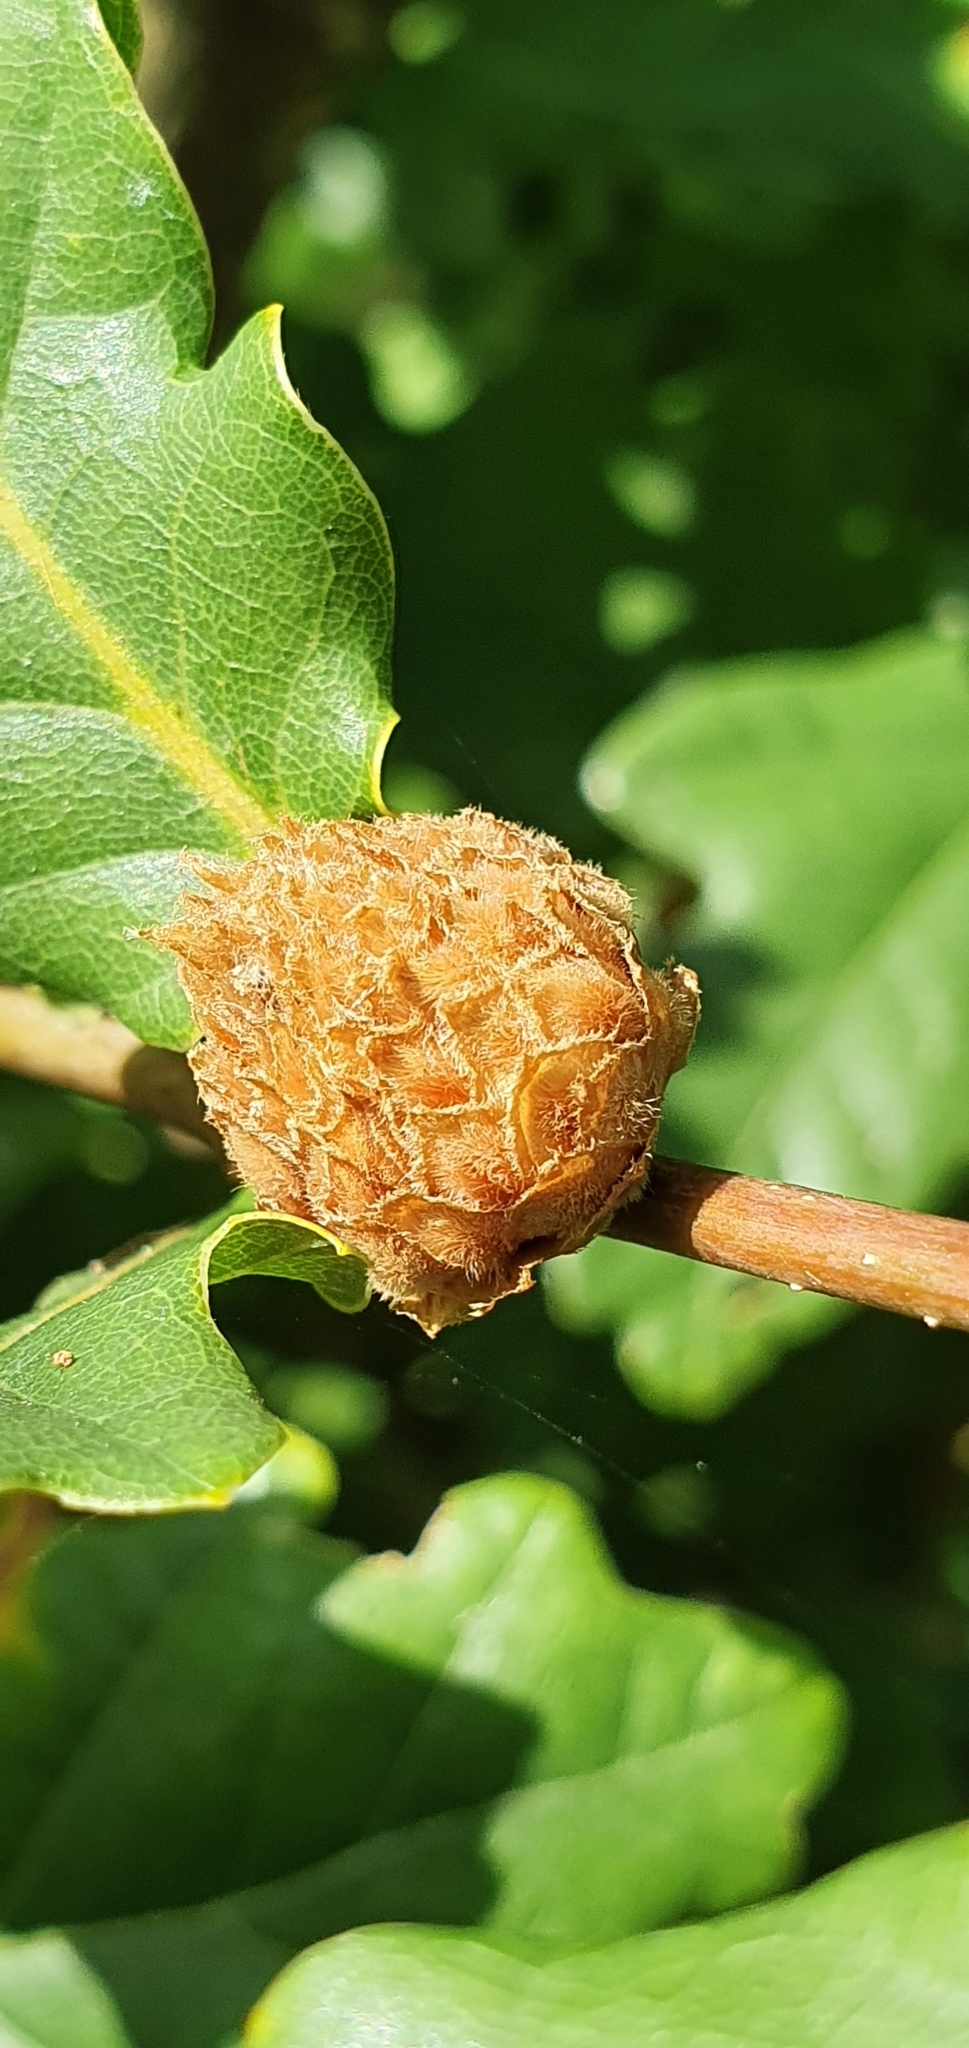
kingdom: Animalia
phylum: Arthropoda
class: Insecta
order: Hymenoptera
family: Cynipidae
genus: Andricus
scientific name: Andricus foecundatrix
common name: Artichoke gall
